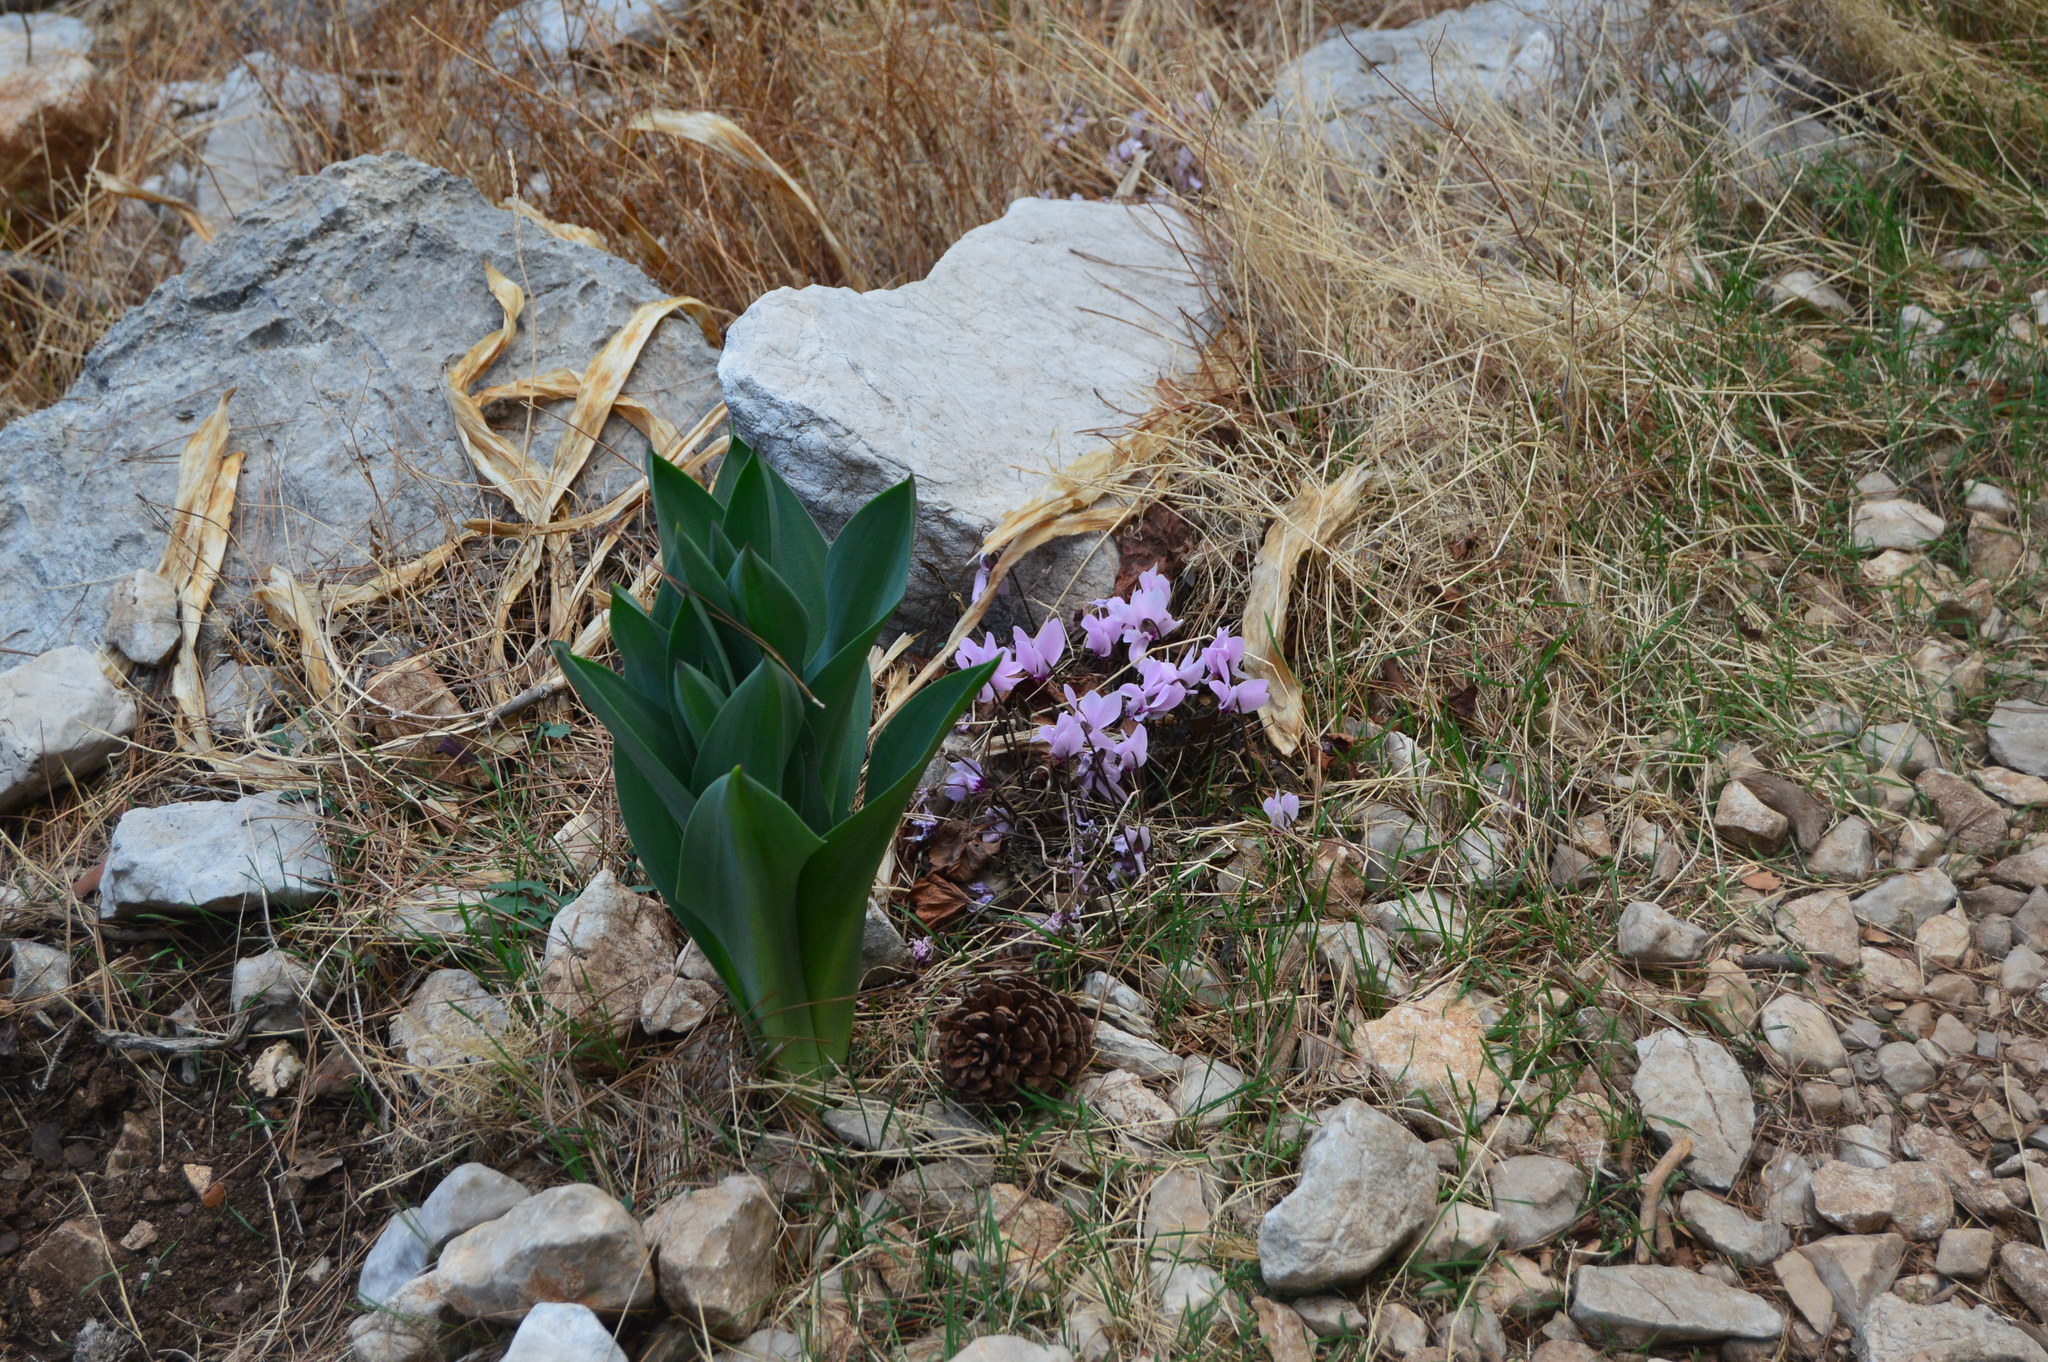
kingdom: Plantae
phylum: Tracheophyta
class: Magnoliopsida
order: Ericales
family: Primulaceae
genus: Cyclamen
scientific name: Cyclamen graecum
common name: Greek cyclamen
